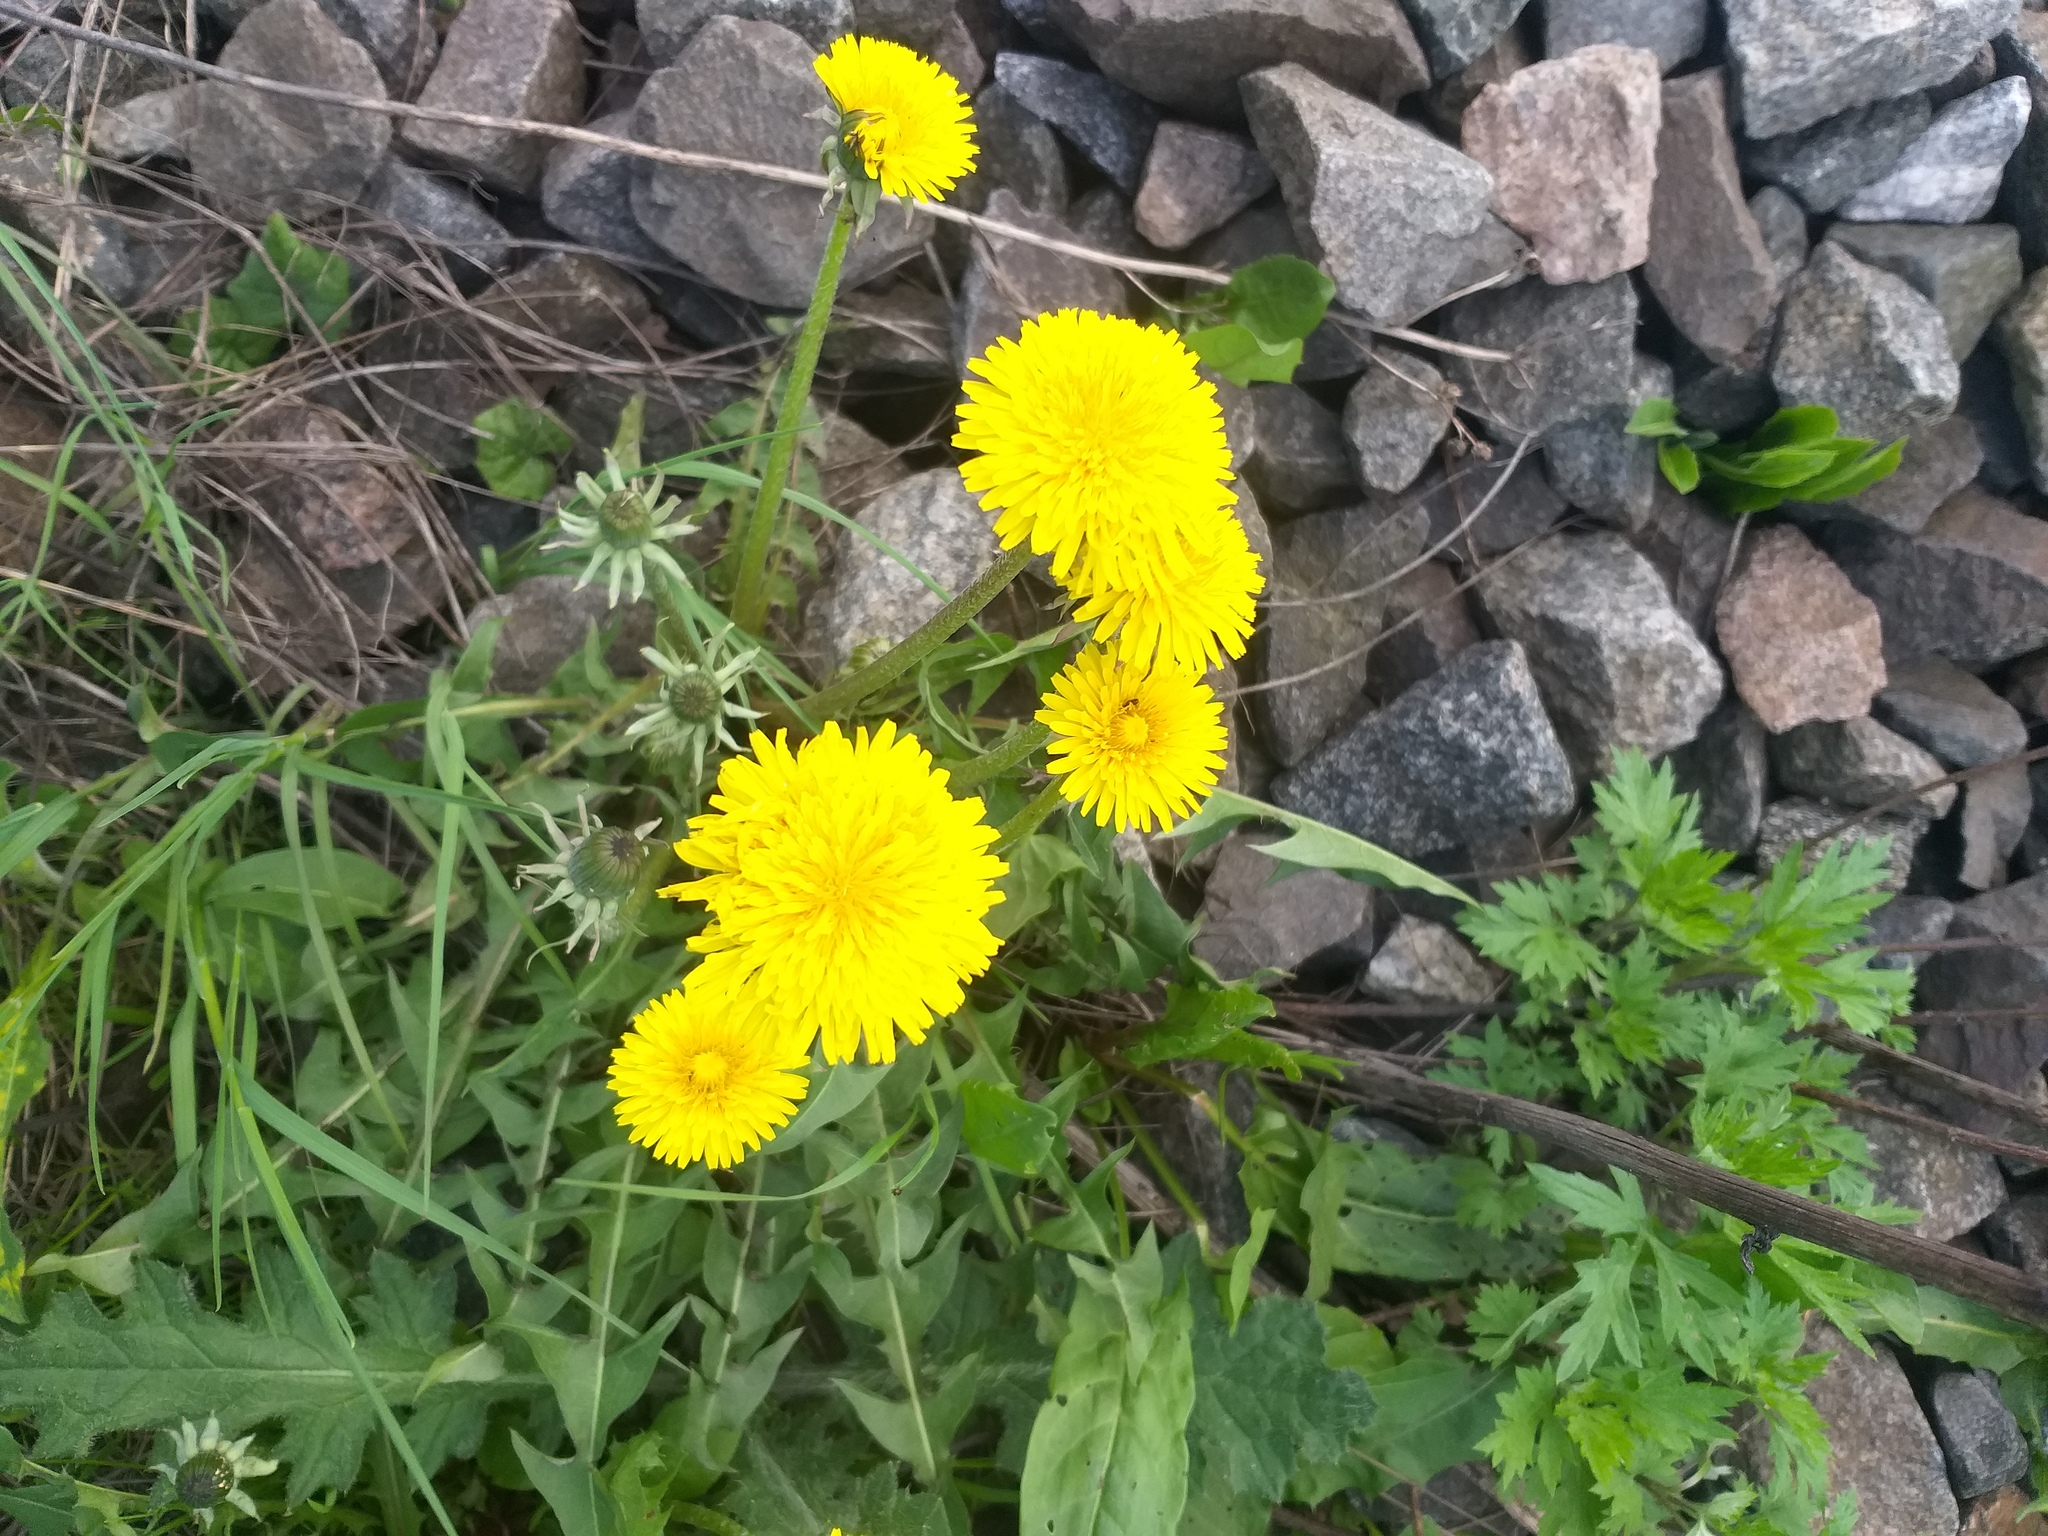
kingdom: Plantae
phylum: Tracheophyta
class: Magnoliopsida
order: Asterales
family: Asteraceae
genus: Taraxacum
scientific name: Taraxacum officinale
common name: Common dandelion
